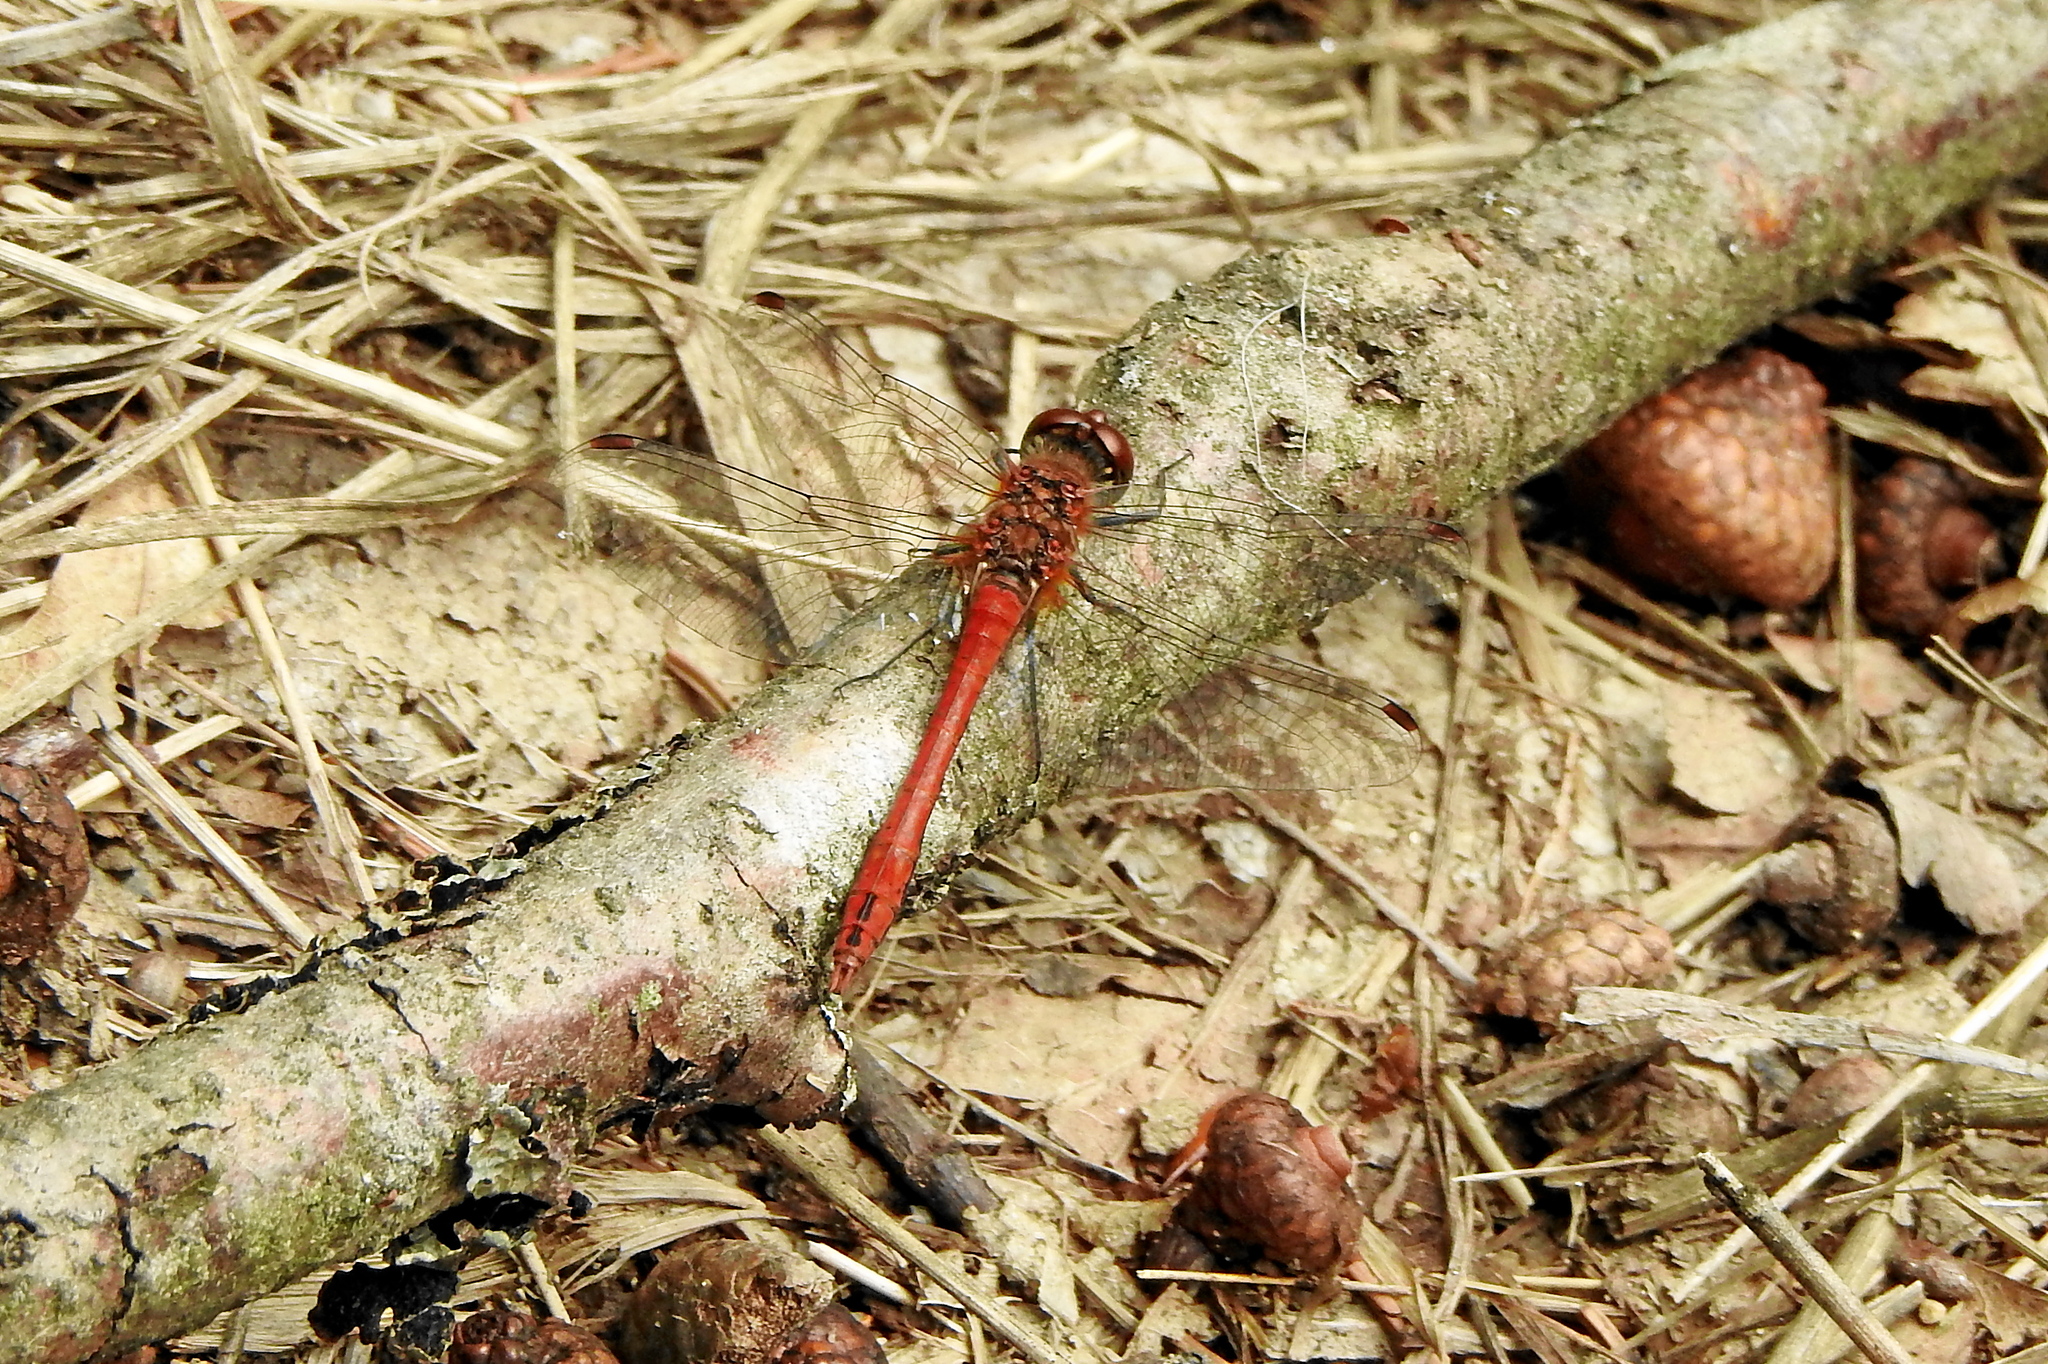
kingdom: Animalia
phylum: Arthropoda
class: Insecta
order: Odonata
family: Libellulidae
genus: Sympetrum
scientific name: Sympetrum sanguineum
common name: Ruddy darter
